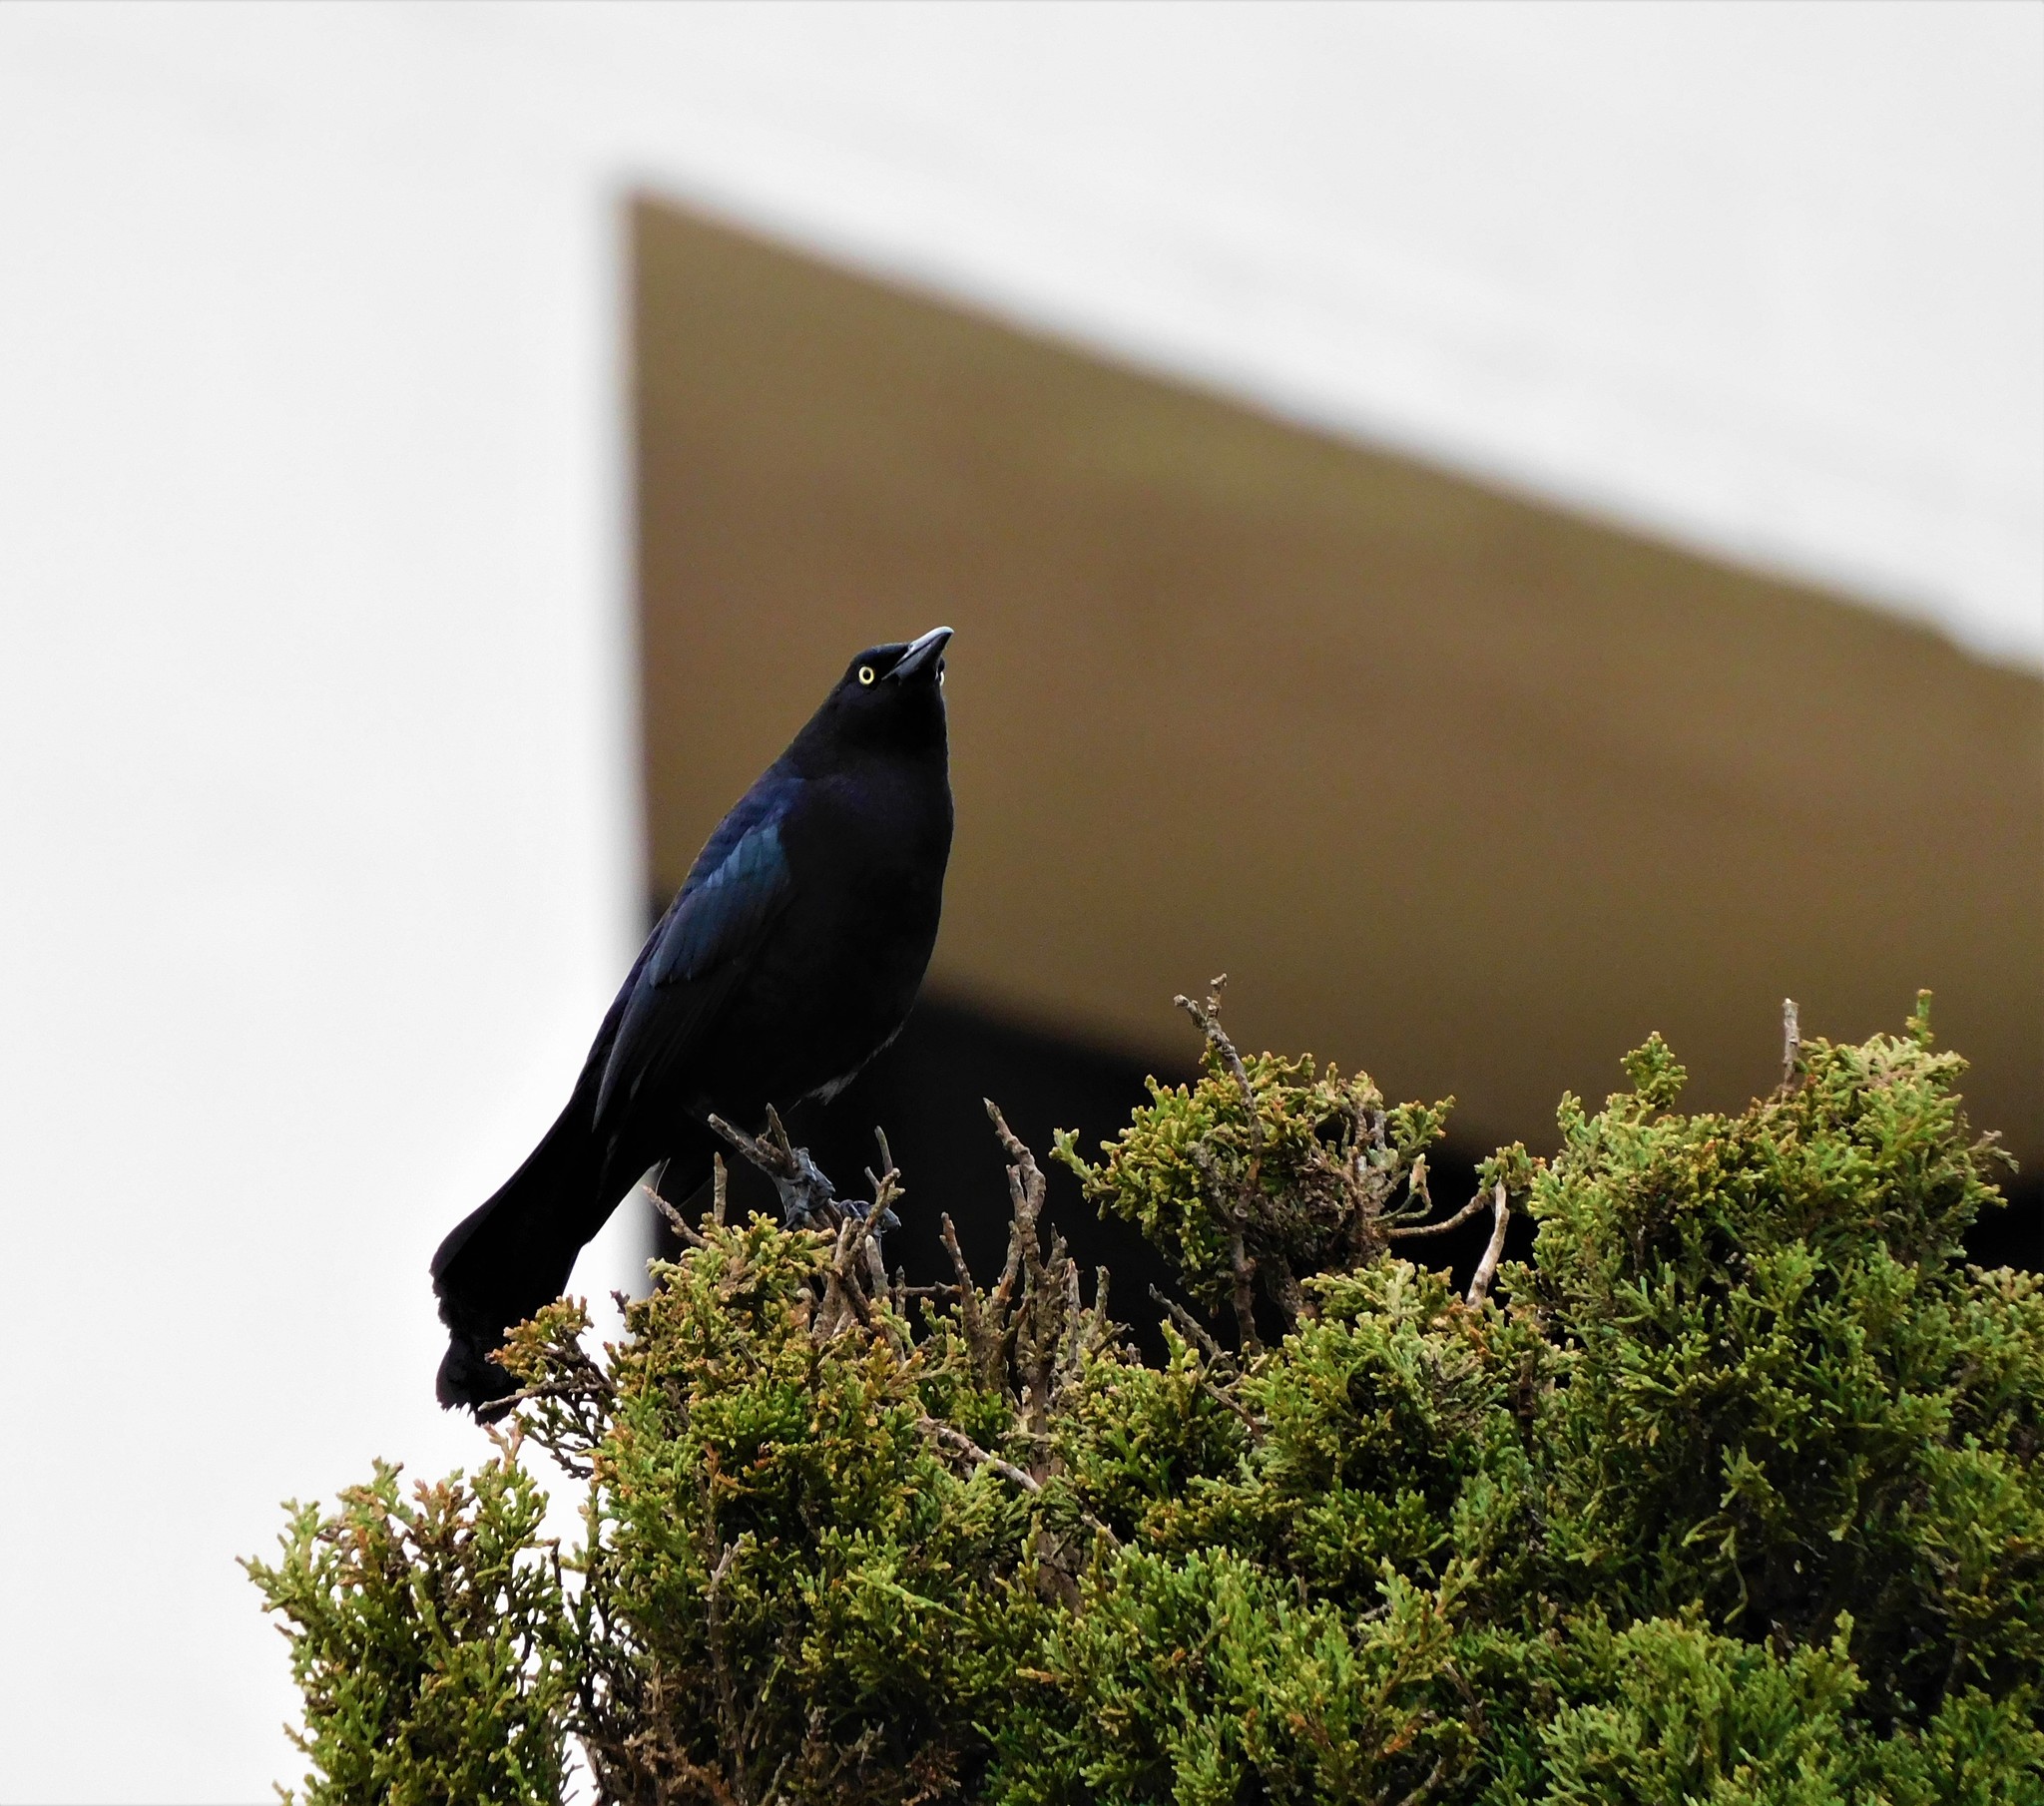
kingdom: Animalia
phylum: Chordata
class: Aves
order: Passeriformes
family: Icteridae
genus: Quiscalus
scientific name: Quiscalus lugubris
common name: Carib grackle
